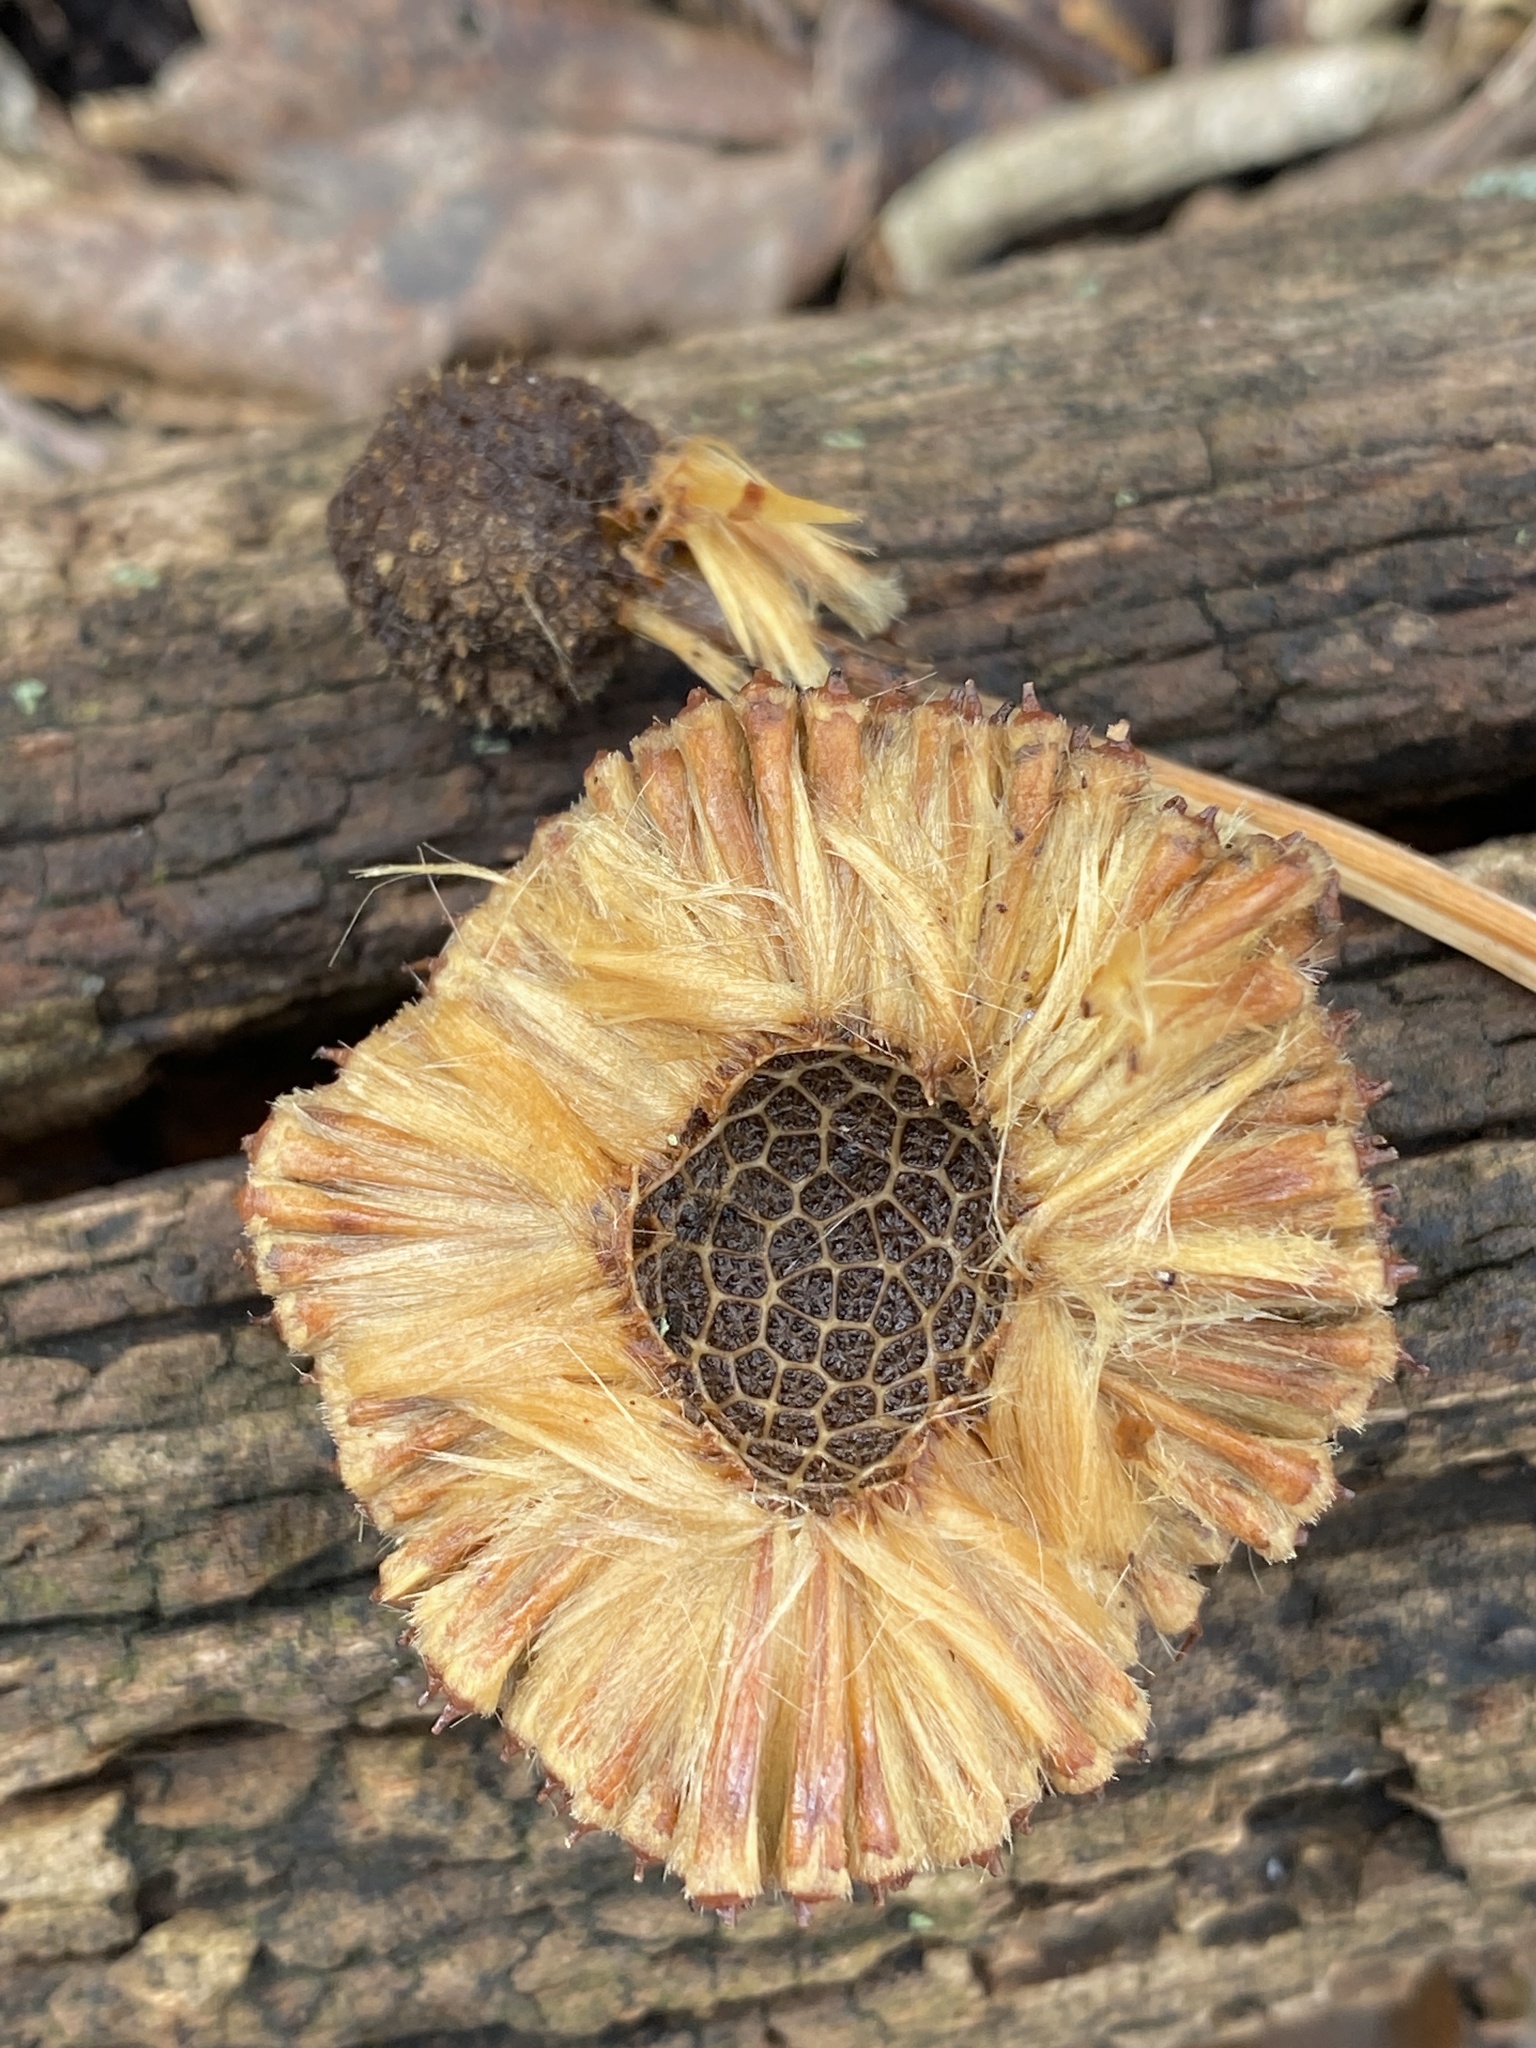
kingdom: Plantae
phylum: Tracheophyta
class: Magnoliopsida
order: Proteales
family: Platanaceae
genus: Platanus
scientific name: Platanus occidentalis
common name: American sycamore
